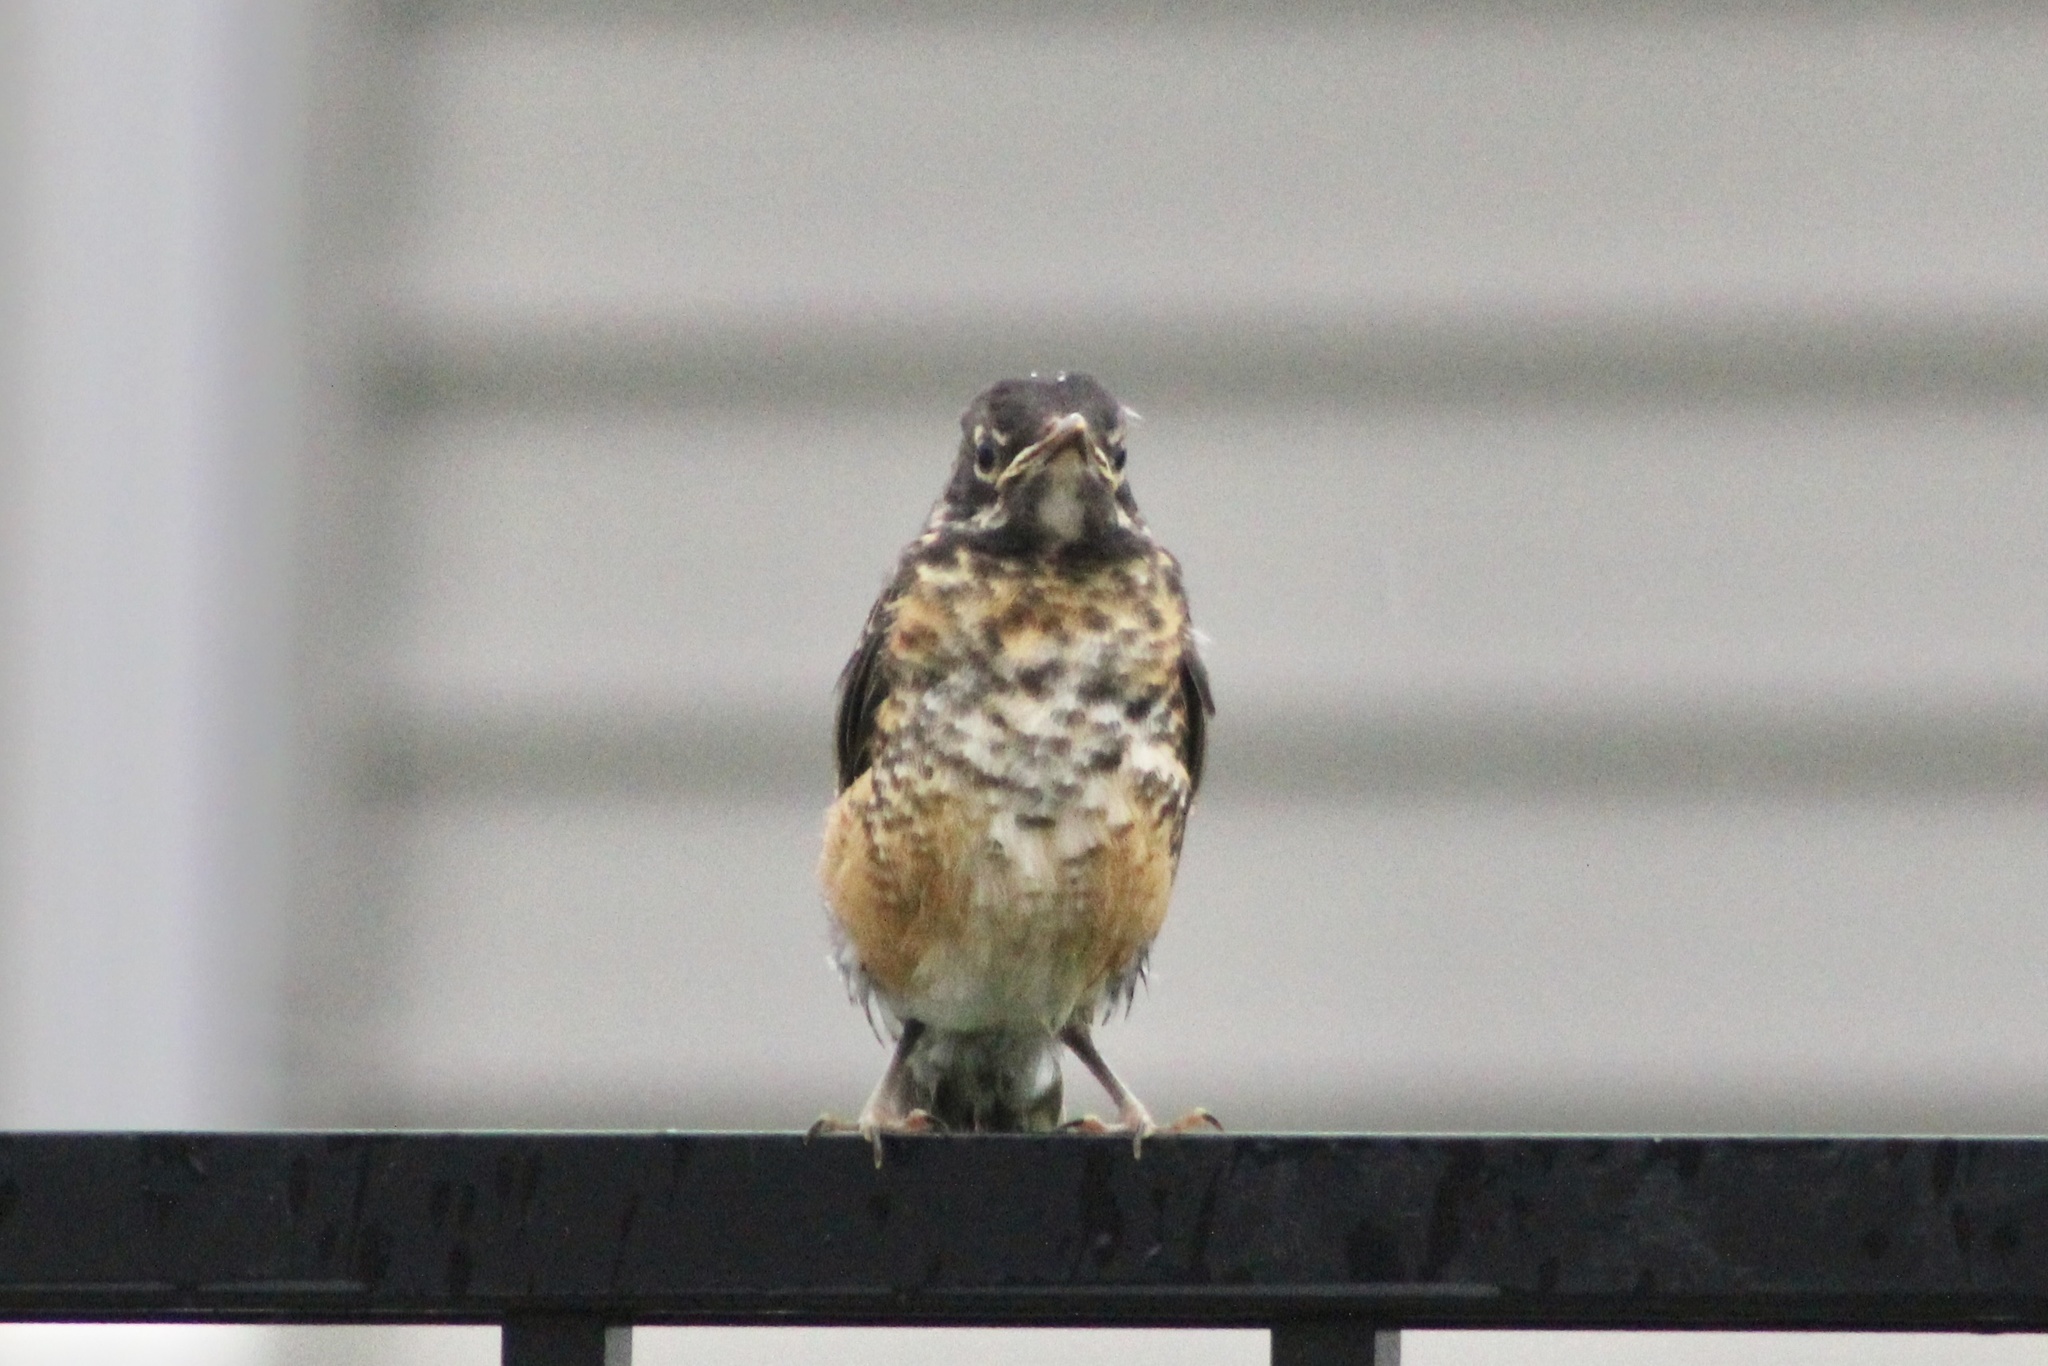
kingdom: Animalia
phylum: Chordata
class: Aves
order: Passeriformes
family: Turdidae
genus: Turdus
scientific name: Turdus migratorius
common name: American robin
